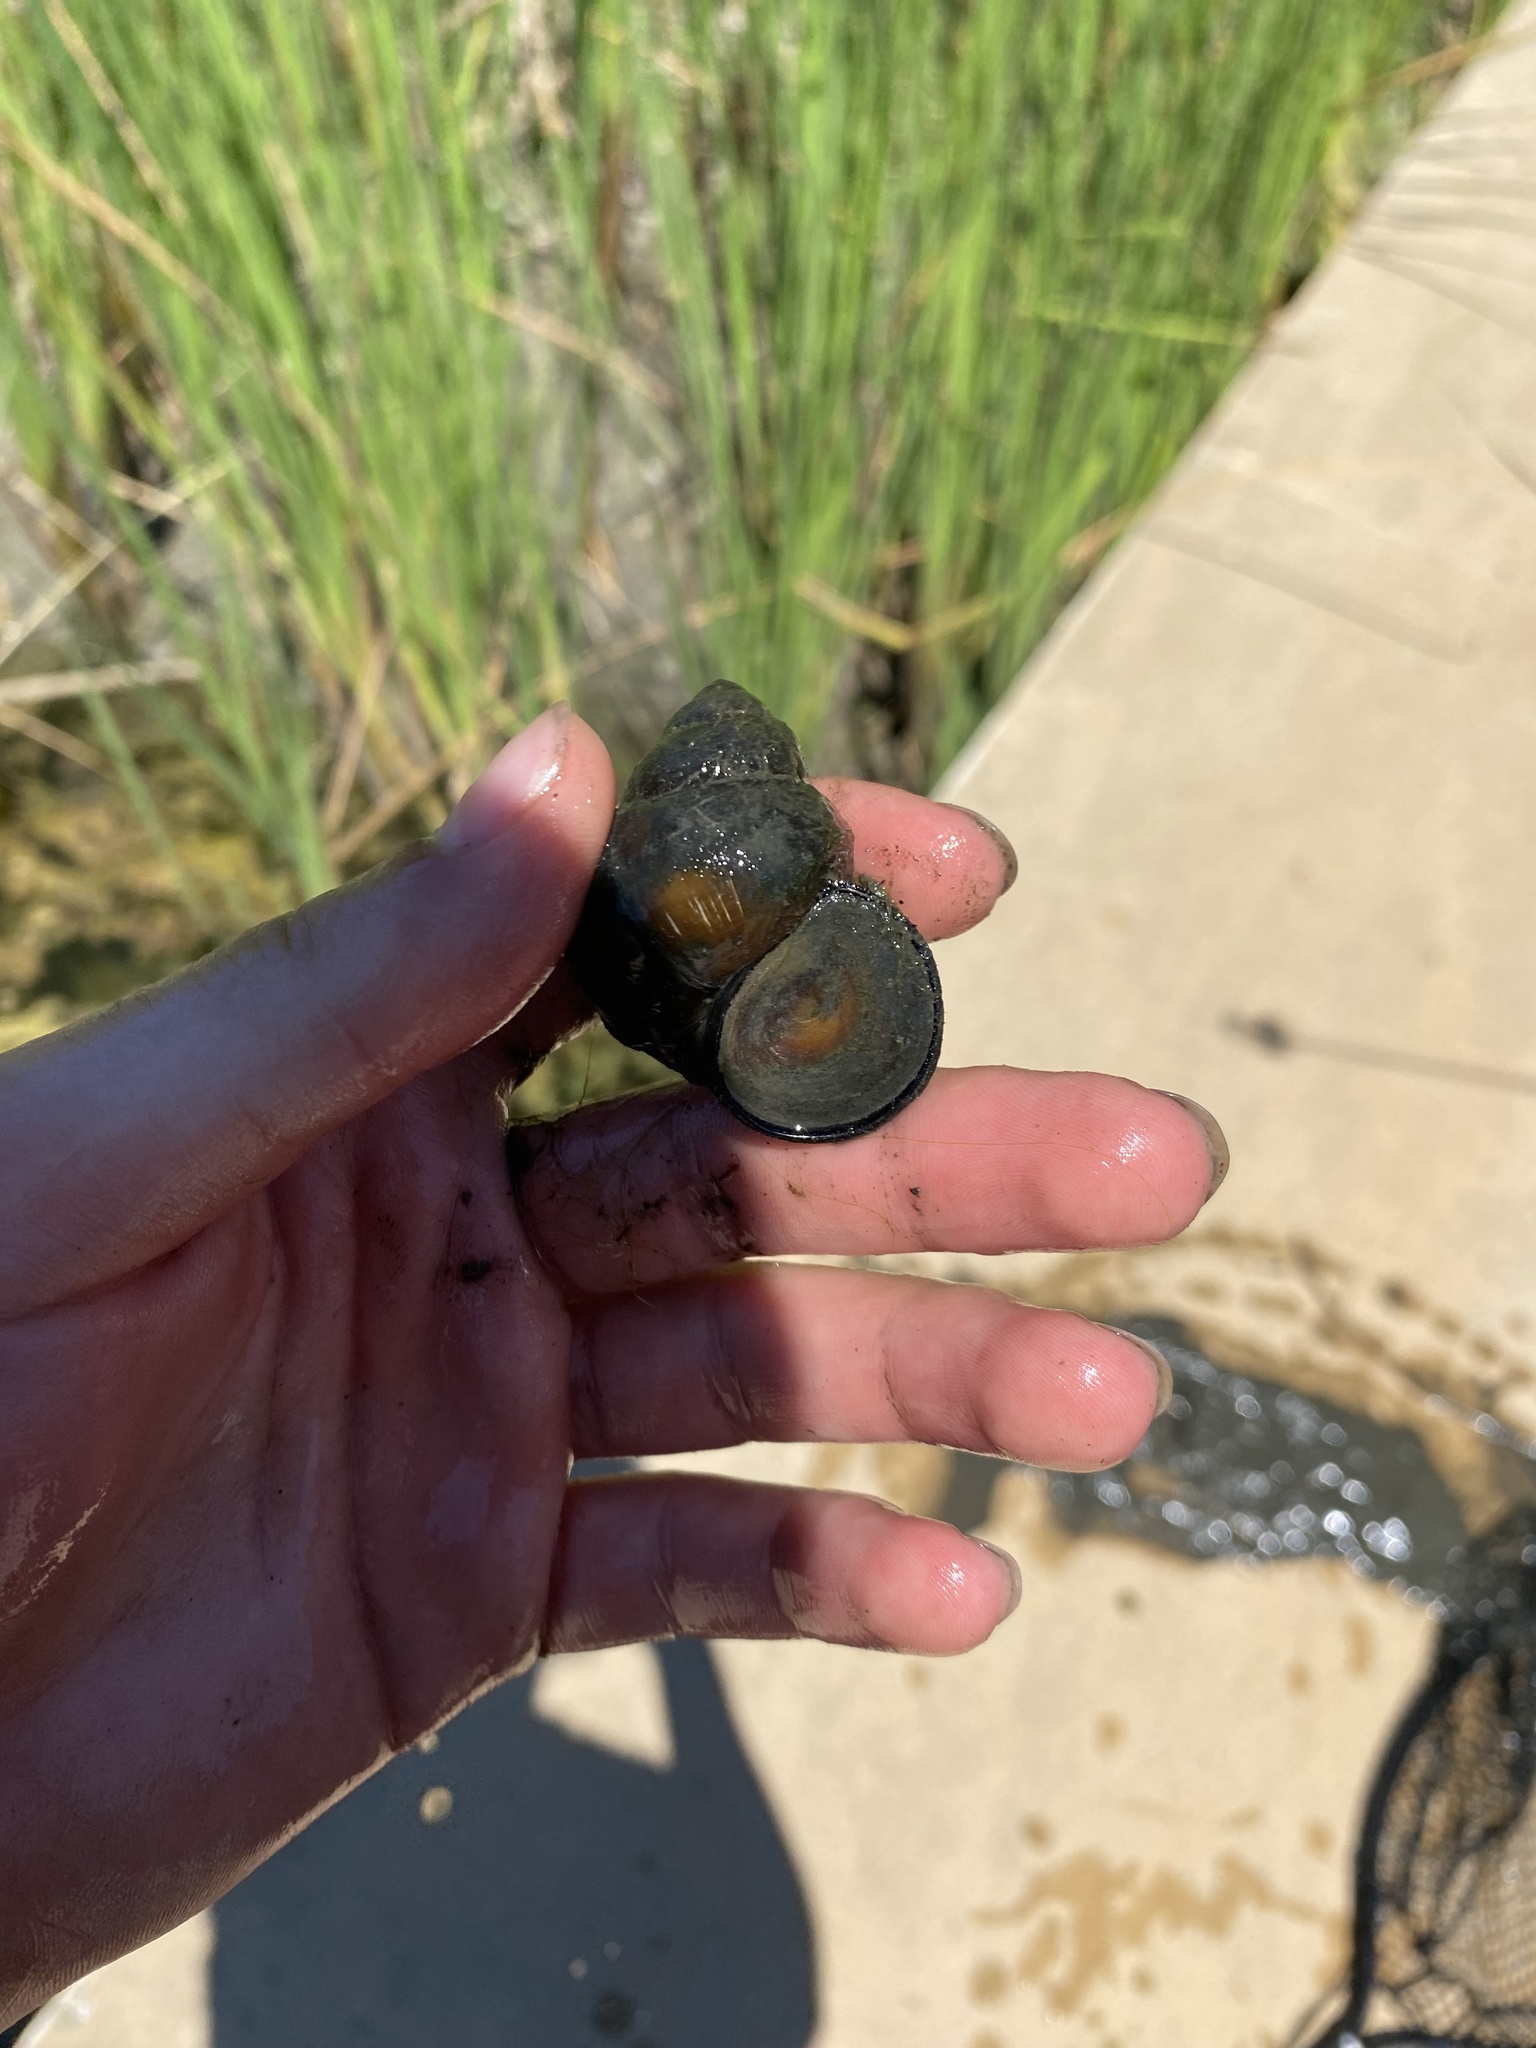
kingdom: Animalia
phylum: Mollusca
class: Gastropoda
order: Architaenioglossa
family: Viviparidae
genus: Cipangopaludina
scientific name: Cipangopaludina chinensis
